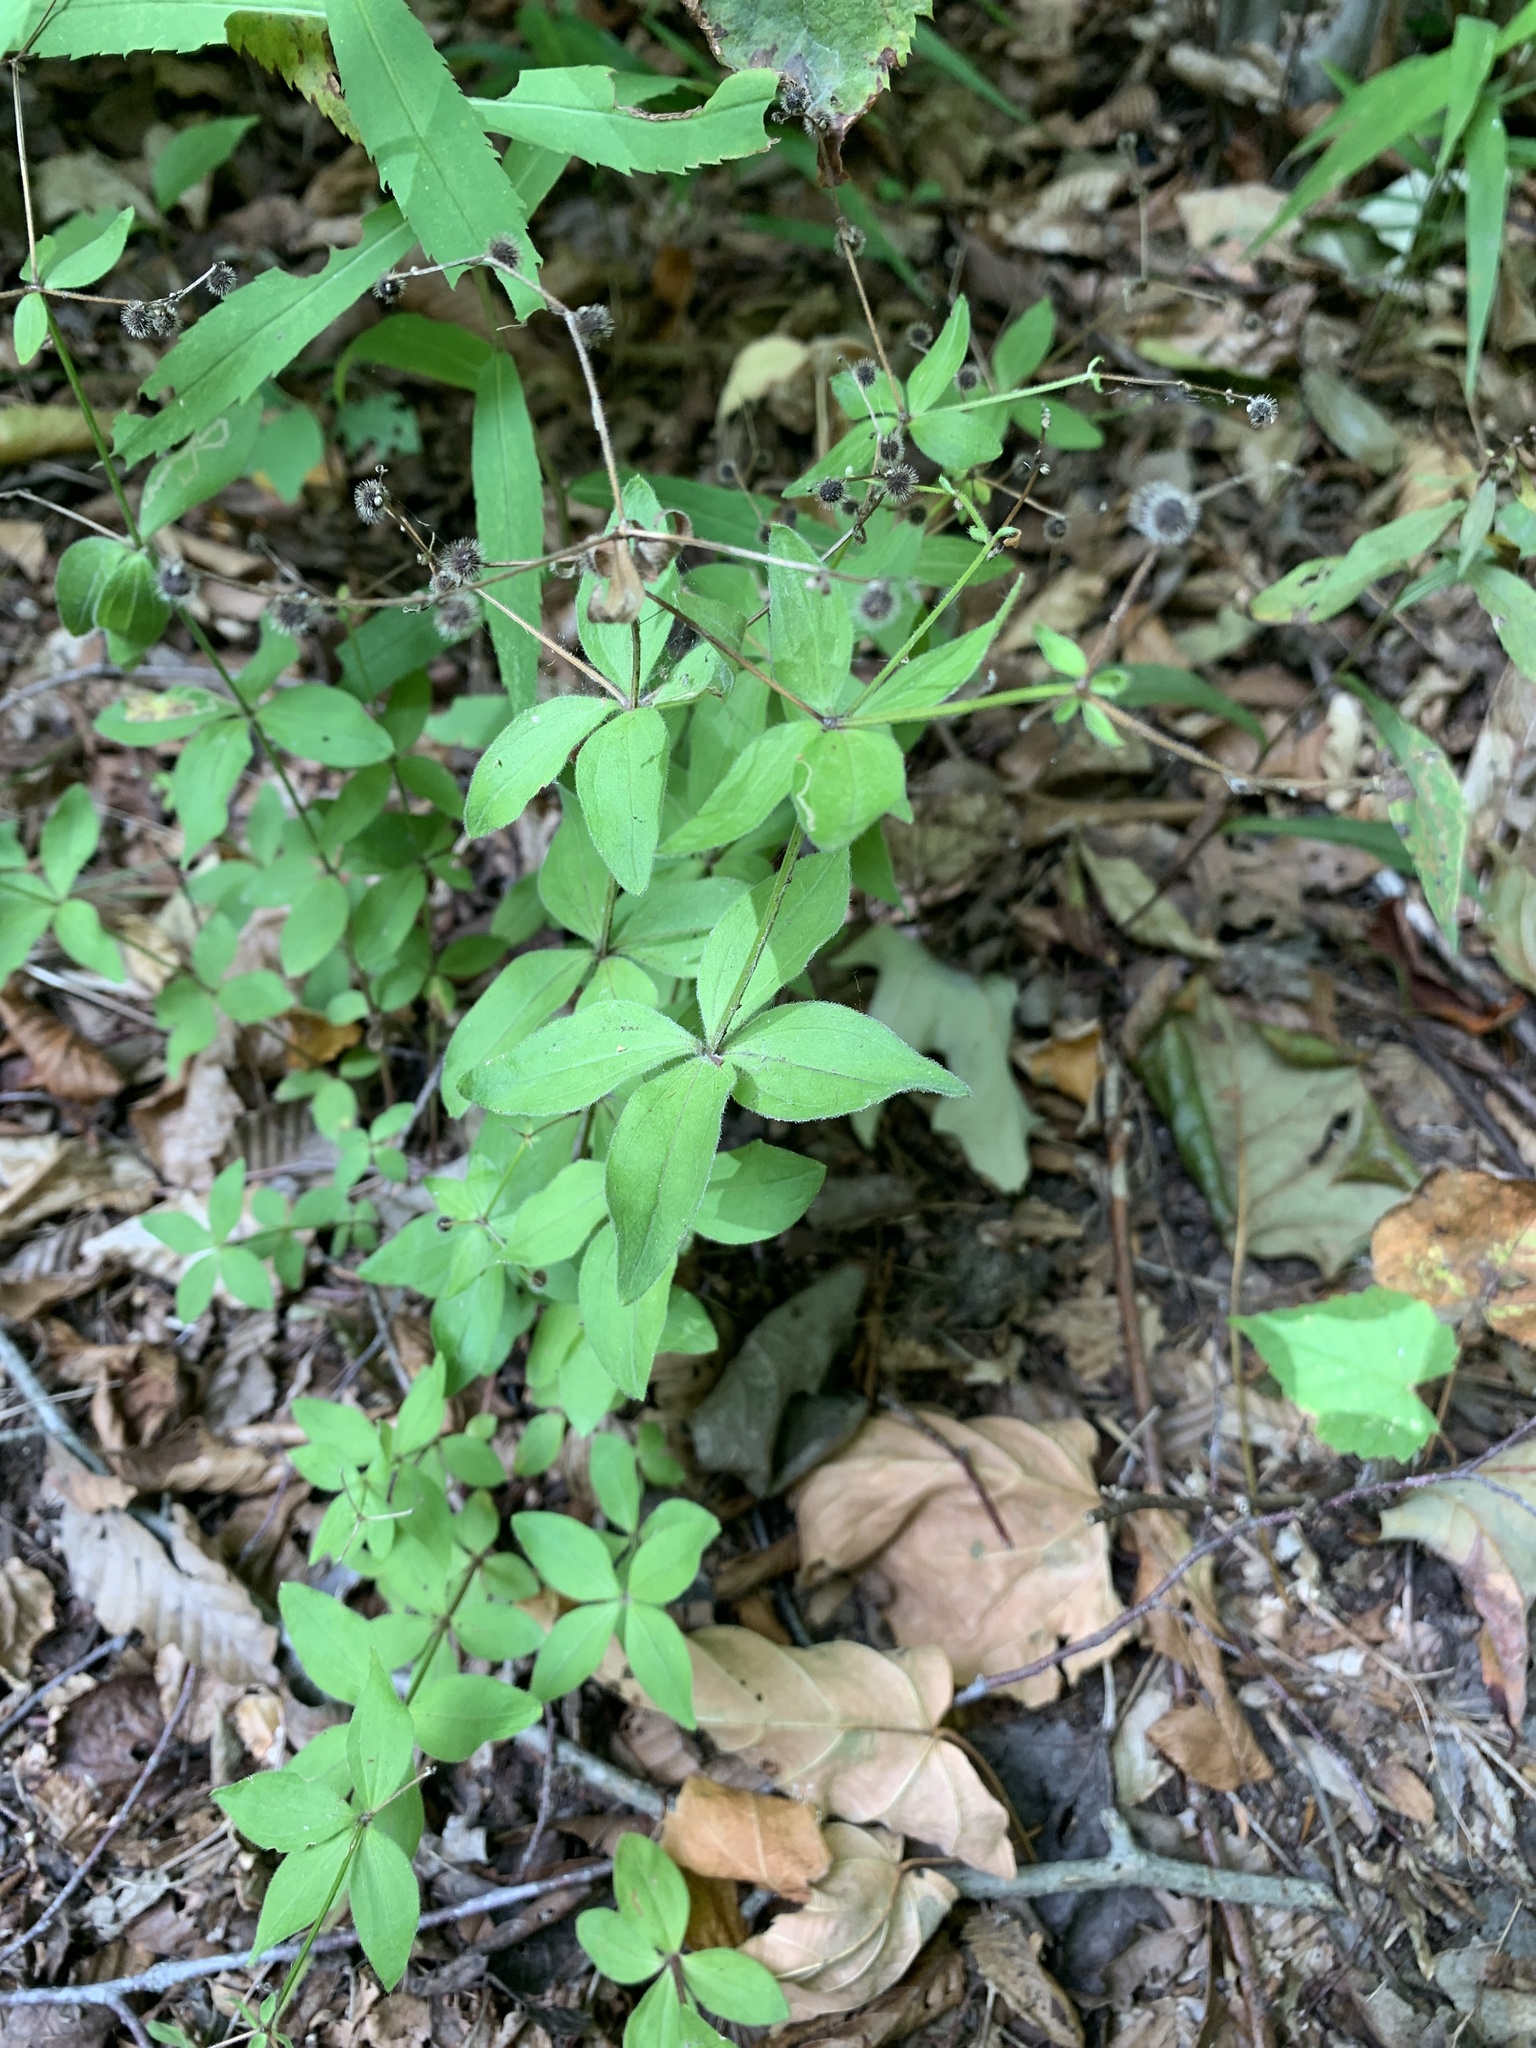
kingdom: Plantae
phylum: Tracheophyta
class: Magnoliopsida
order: Gentianales
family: Rubiaceae
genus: Galium
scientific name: Galium circaezans
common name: Forest bedstraw
